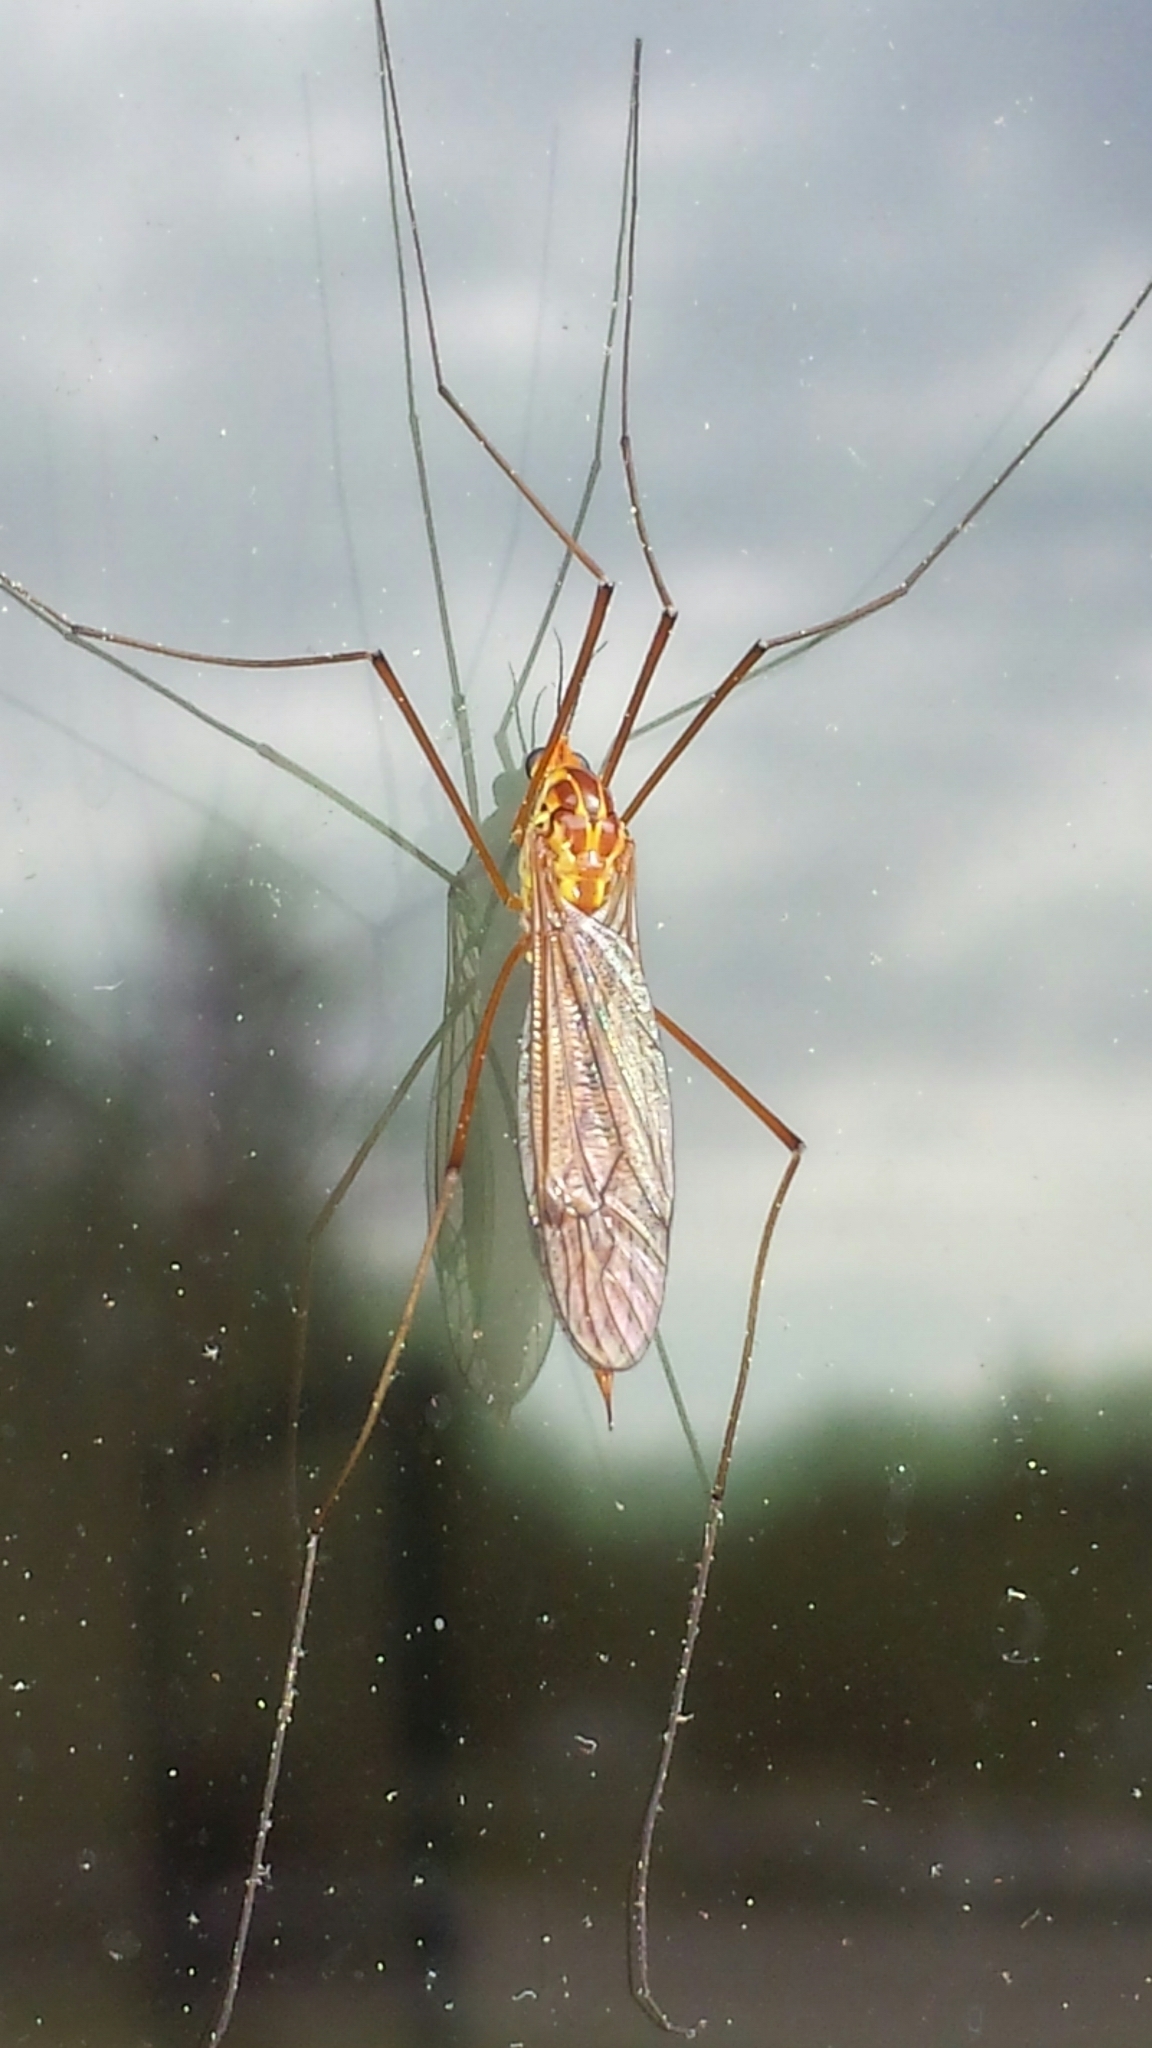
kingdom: Animalia
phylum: Arthropoda
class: Insecta
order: Diptera
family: Tipulidae
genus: Nephrotoma
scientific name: Nephrotoma ferruginea
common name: Ferruginous tiger crane fly
